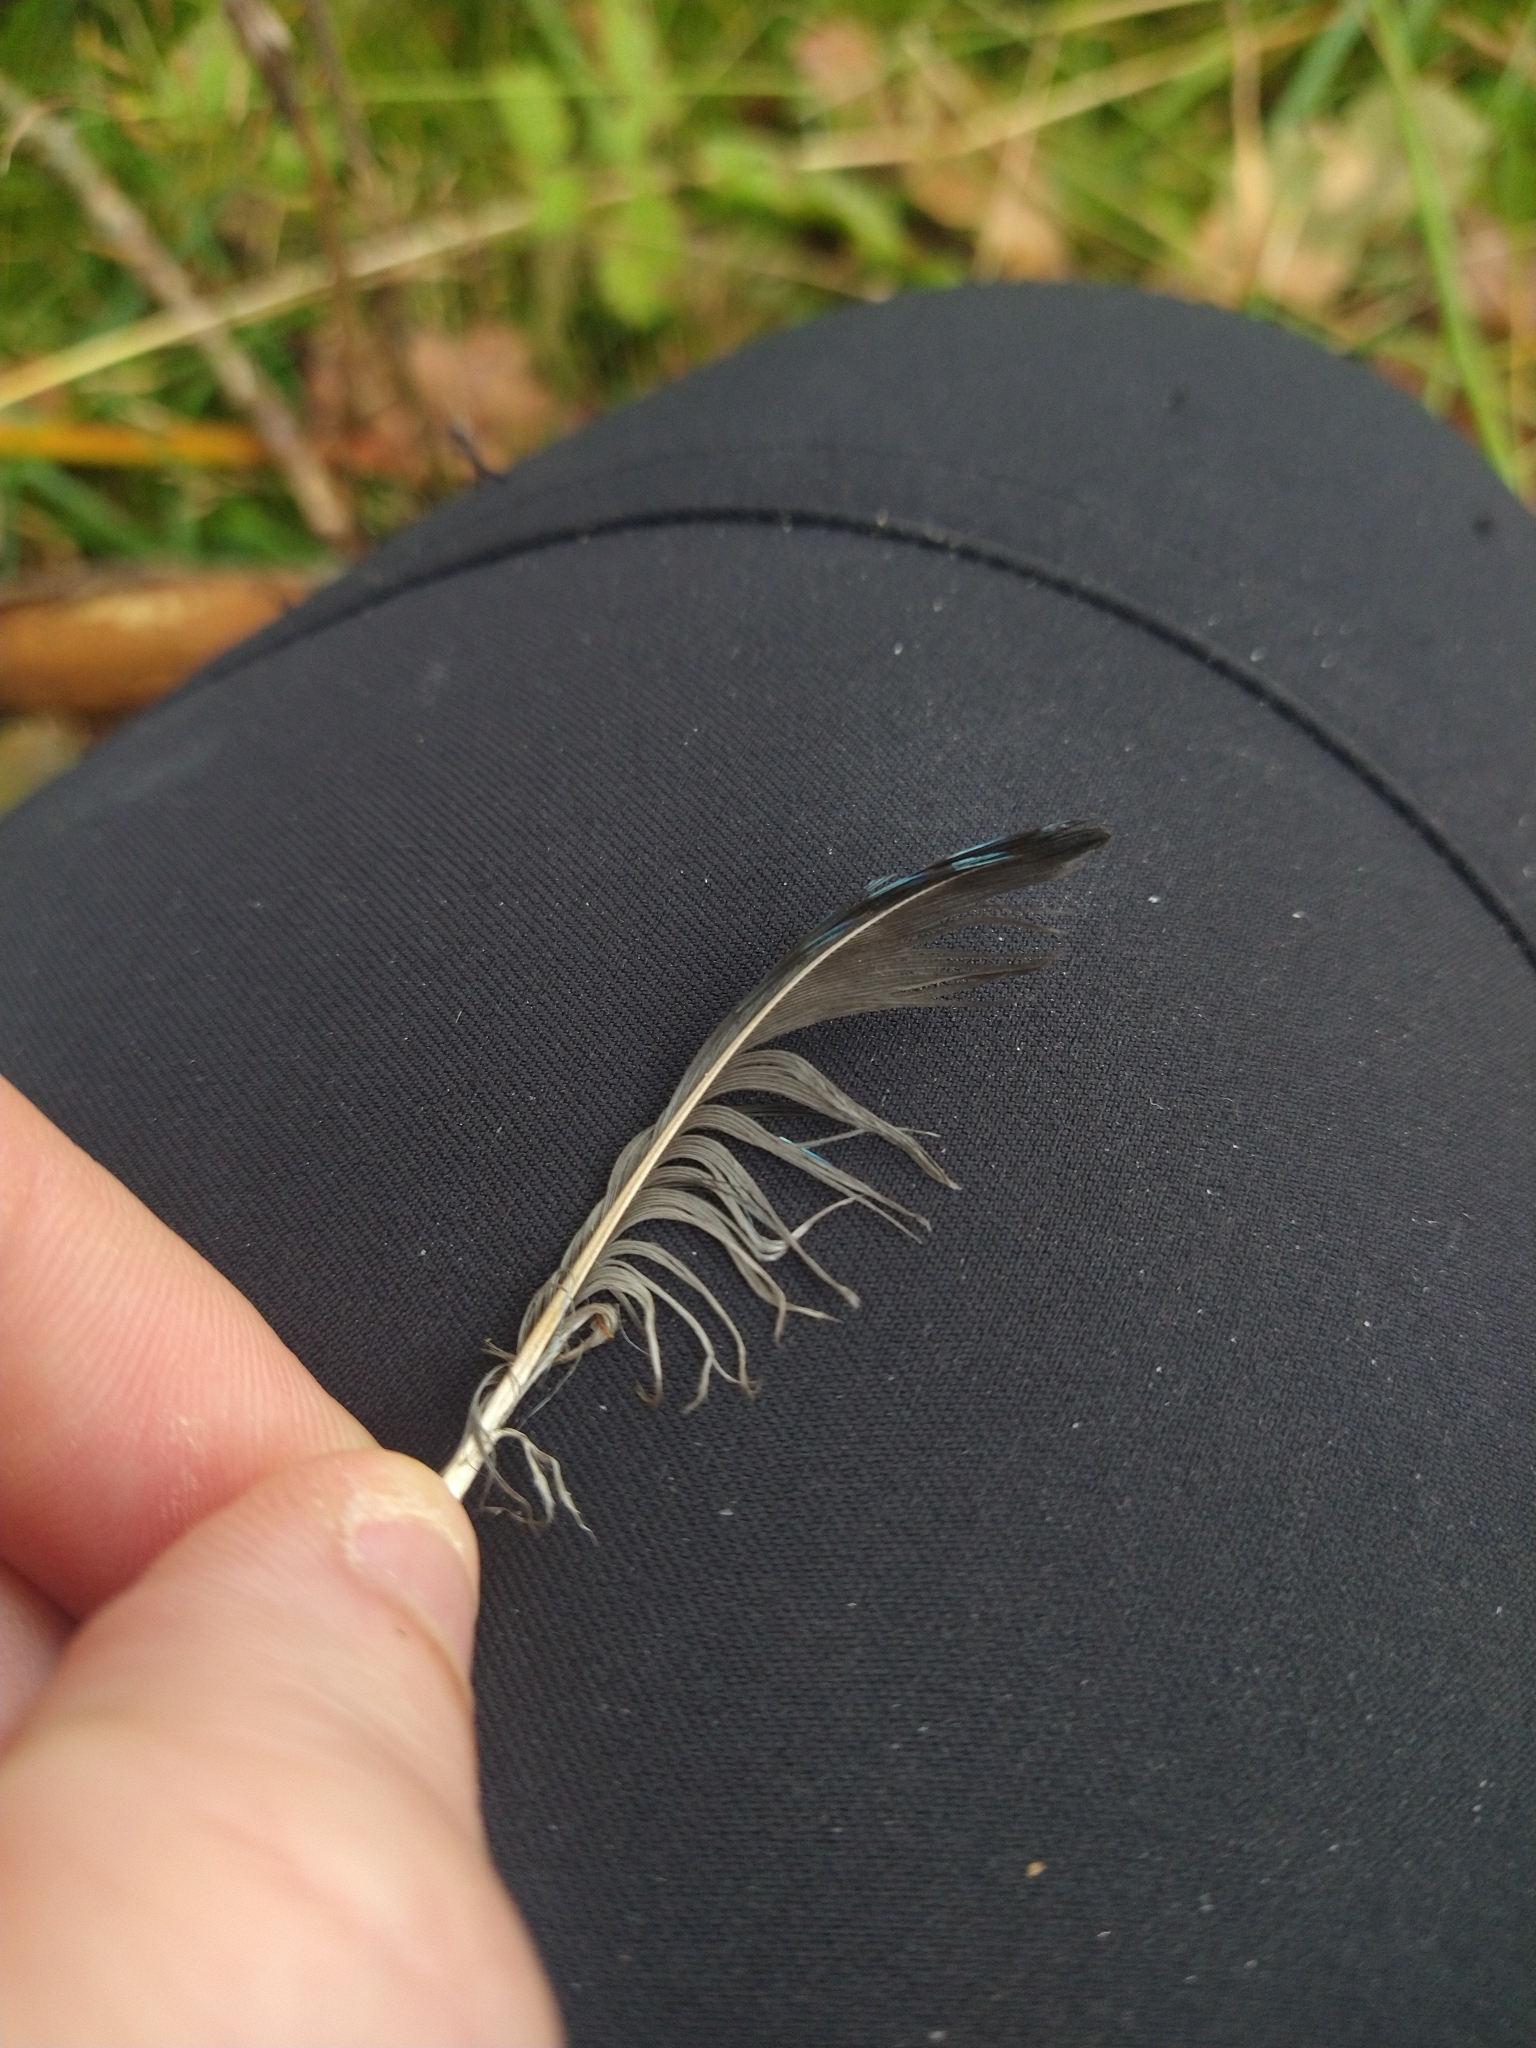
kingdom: Animalia
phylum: Chordata
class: Aves
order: Passeriformes
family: Corvidae
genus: Garrulus
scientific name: Garrulus glandarius
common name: Eurasian jay
